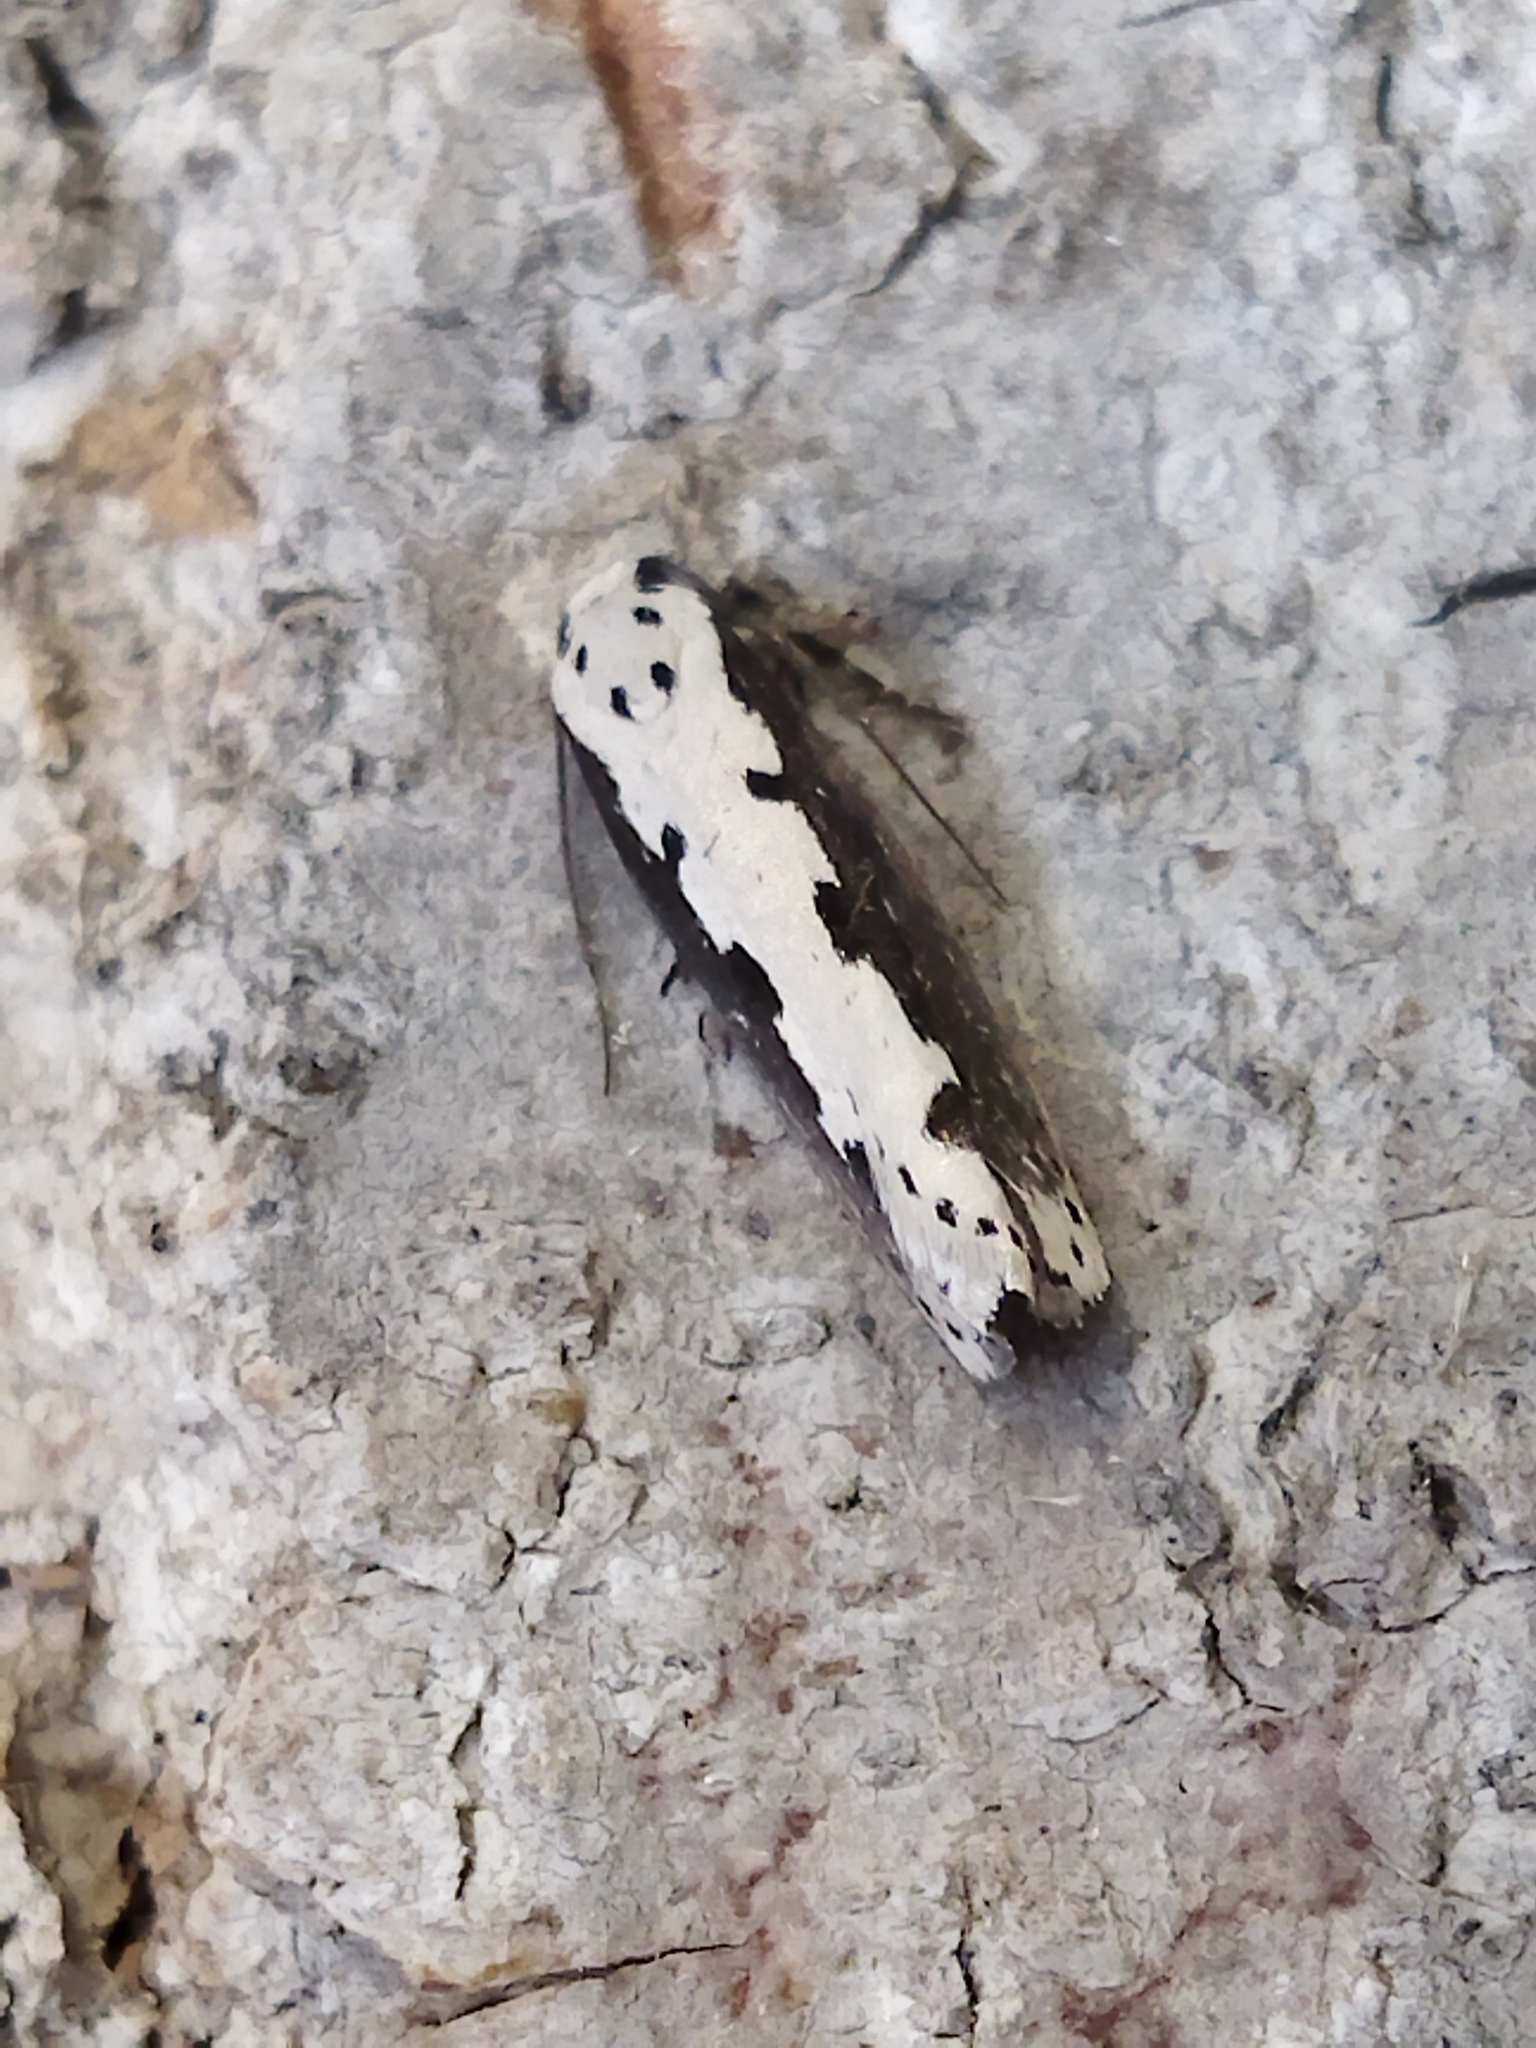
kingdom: Animalia
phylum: Arthropoda
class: Insecta
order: Lepidoptera
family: Ethmiidae
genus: Ethmia
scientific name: Ethmia bipunctella
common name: Bordered ermel
